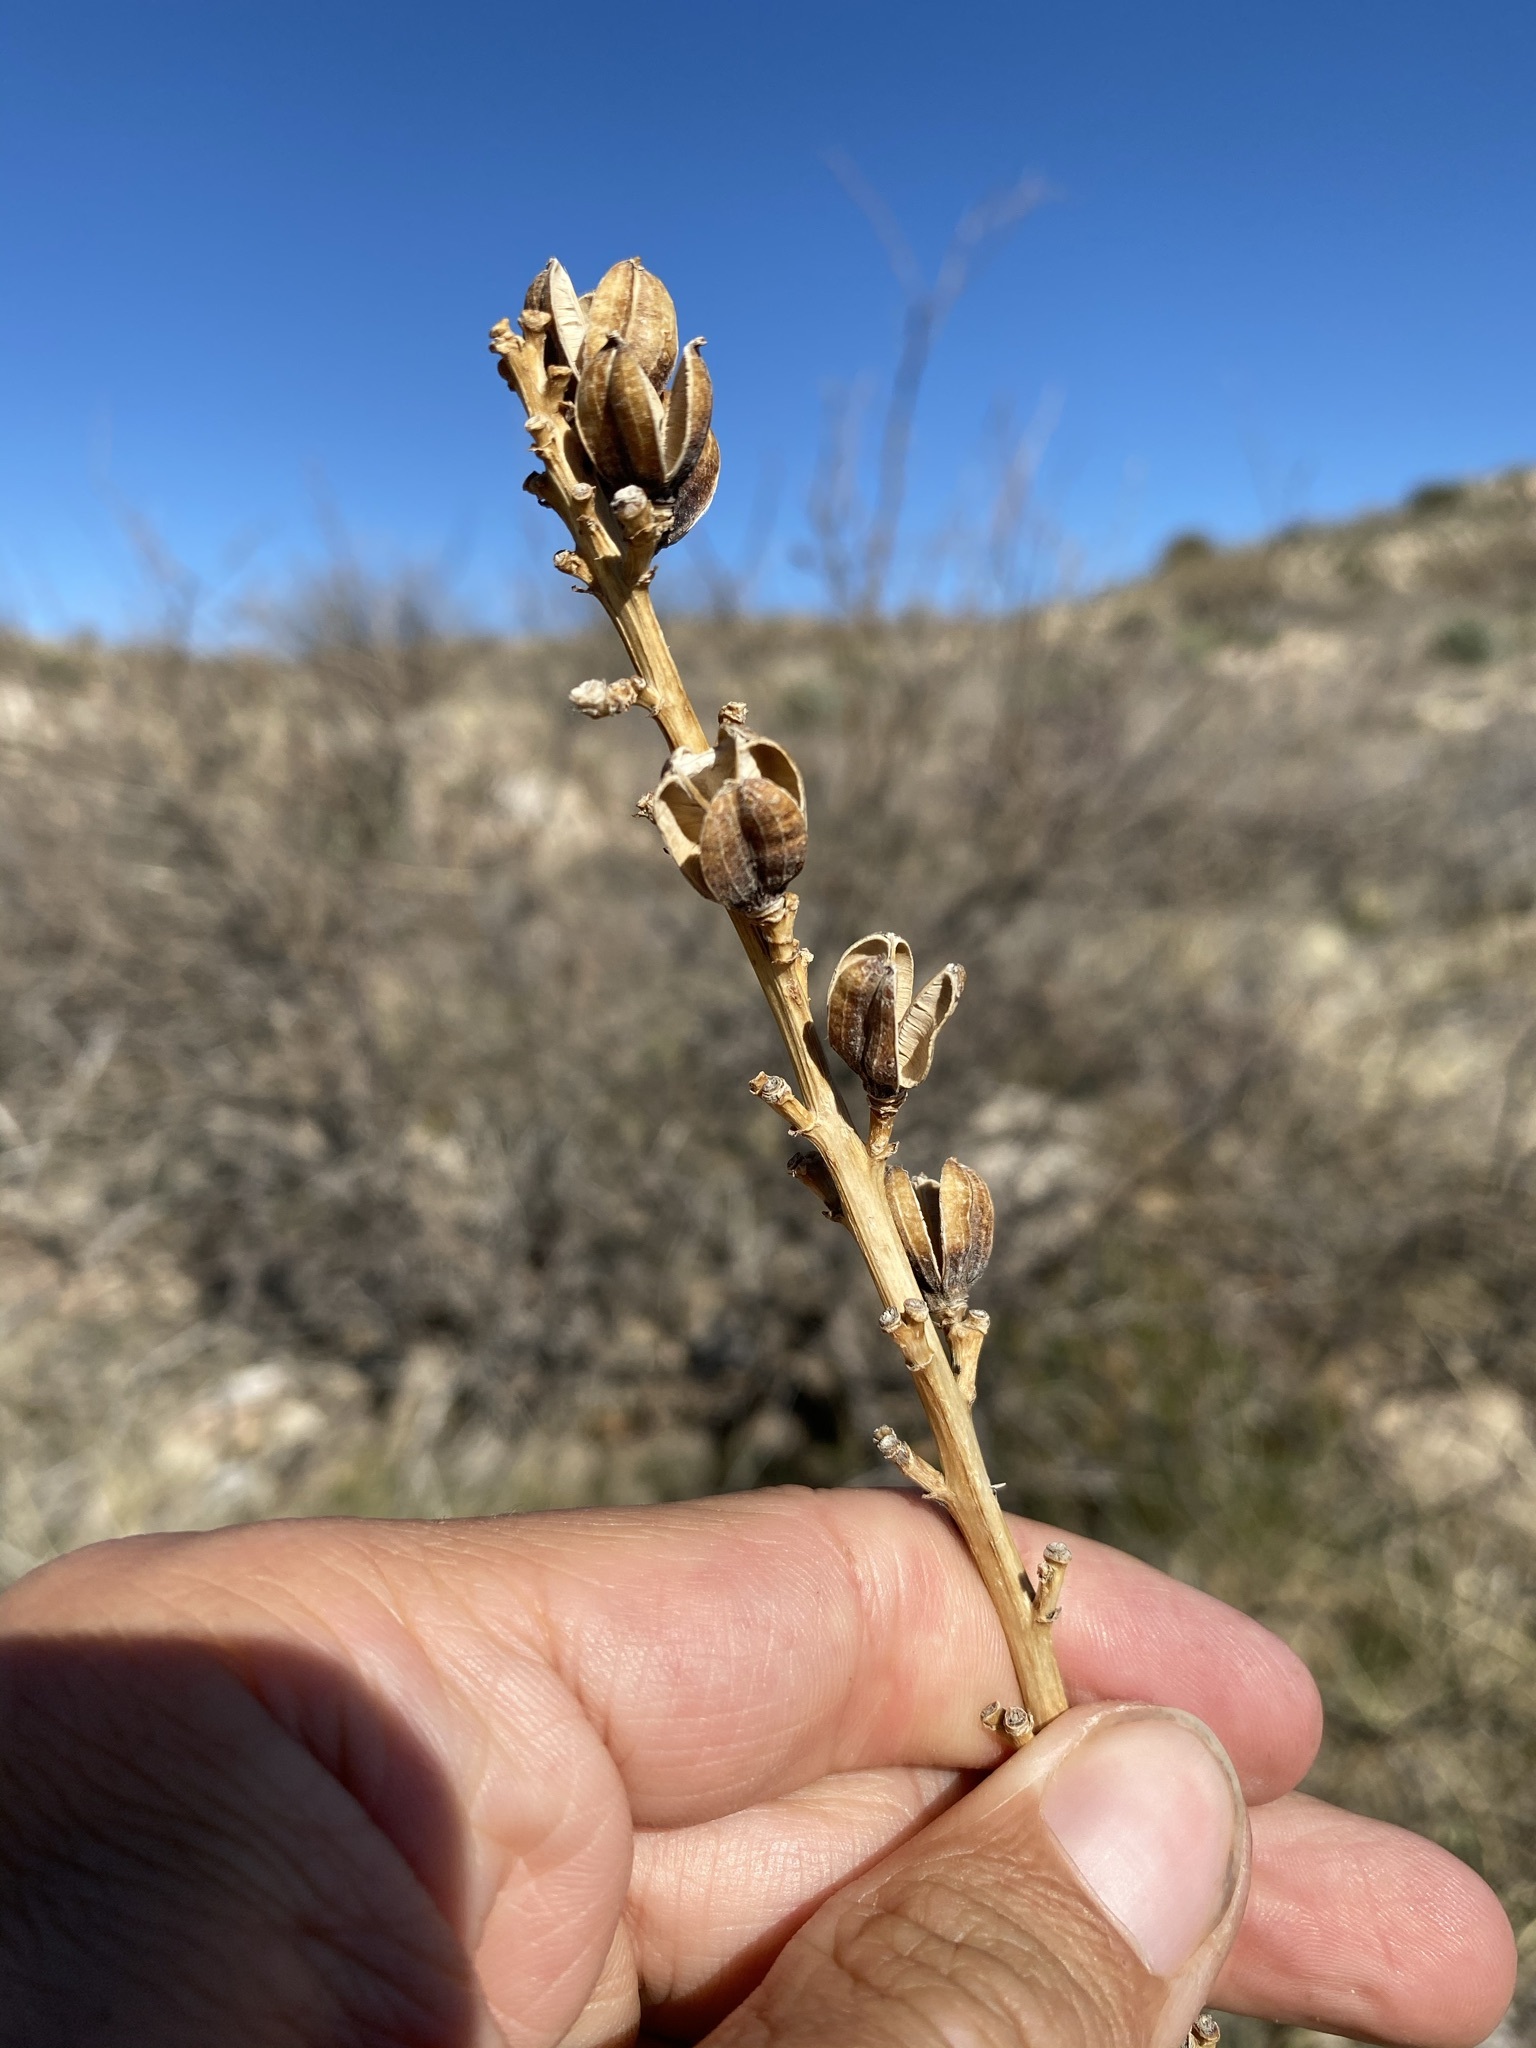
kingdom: Plantae
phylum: Tracheophyta
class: Liliopsida
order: Asparagales
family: Asparagaceae
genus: Agave
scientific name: Agave schottii
